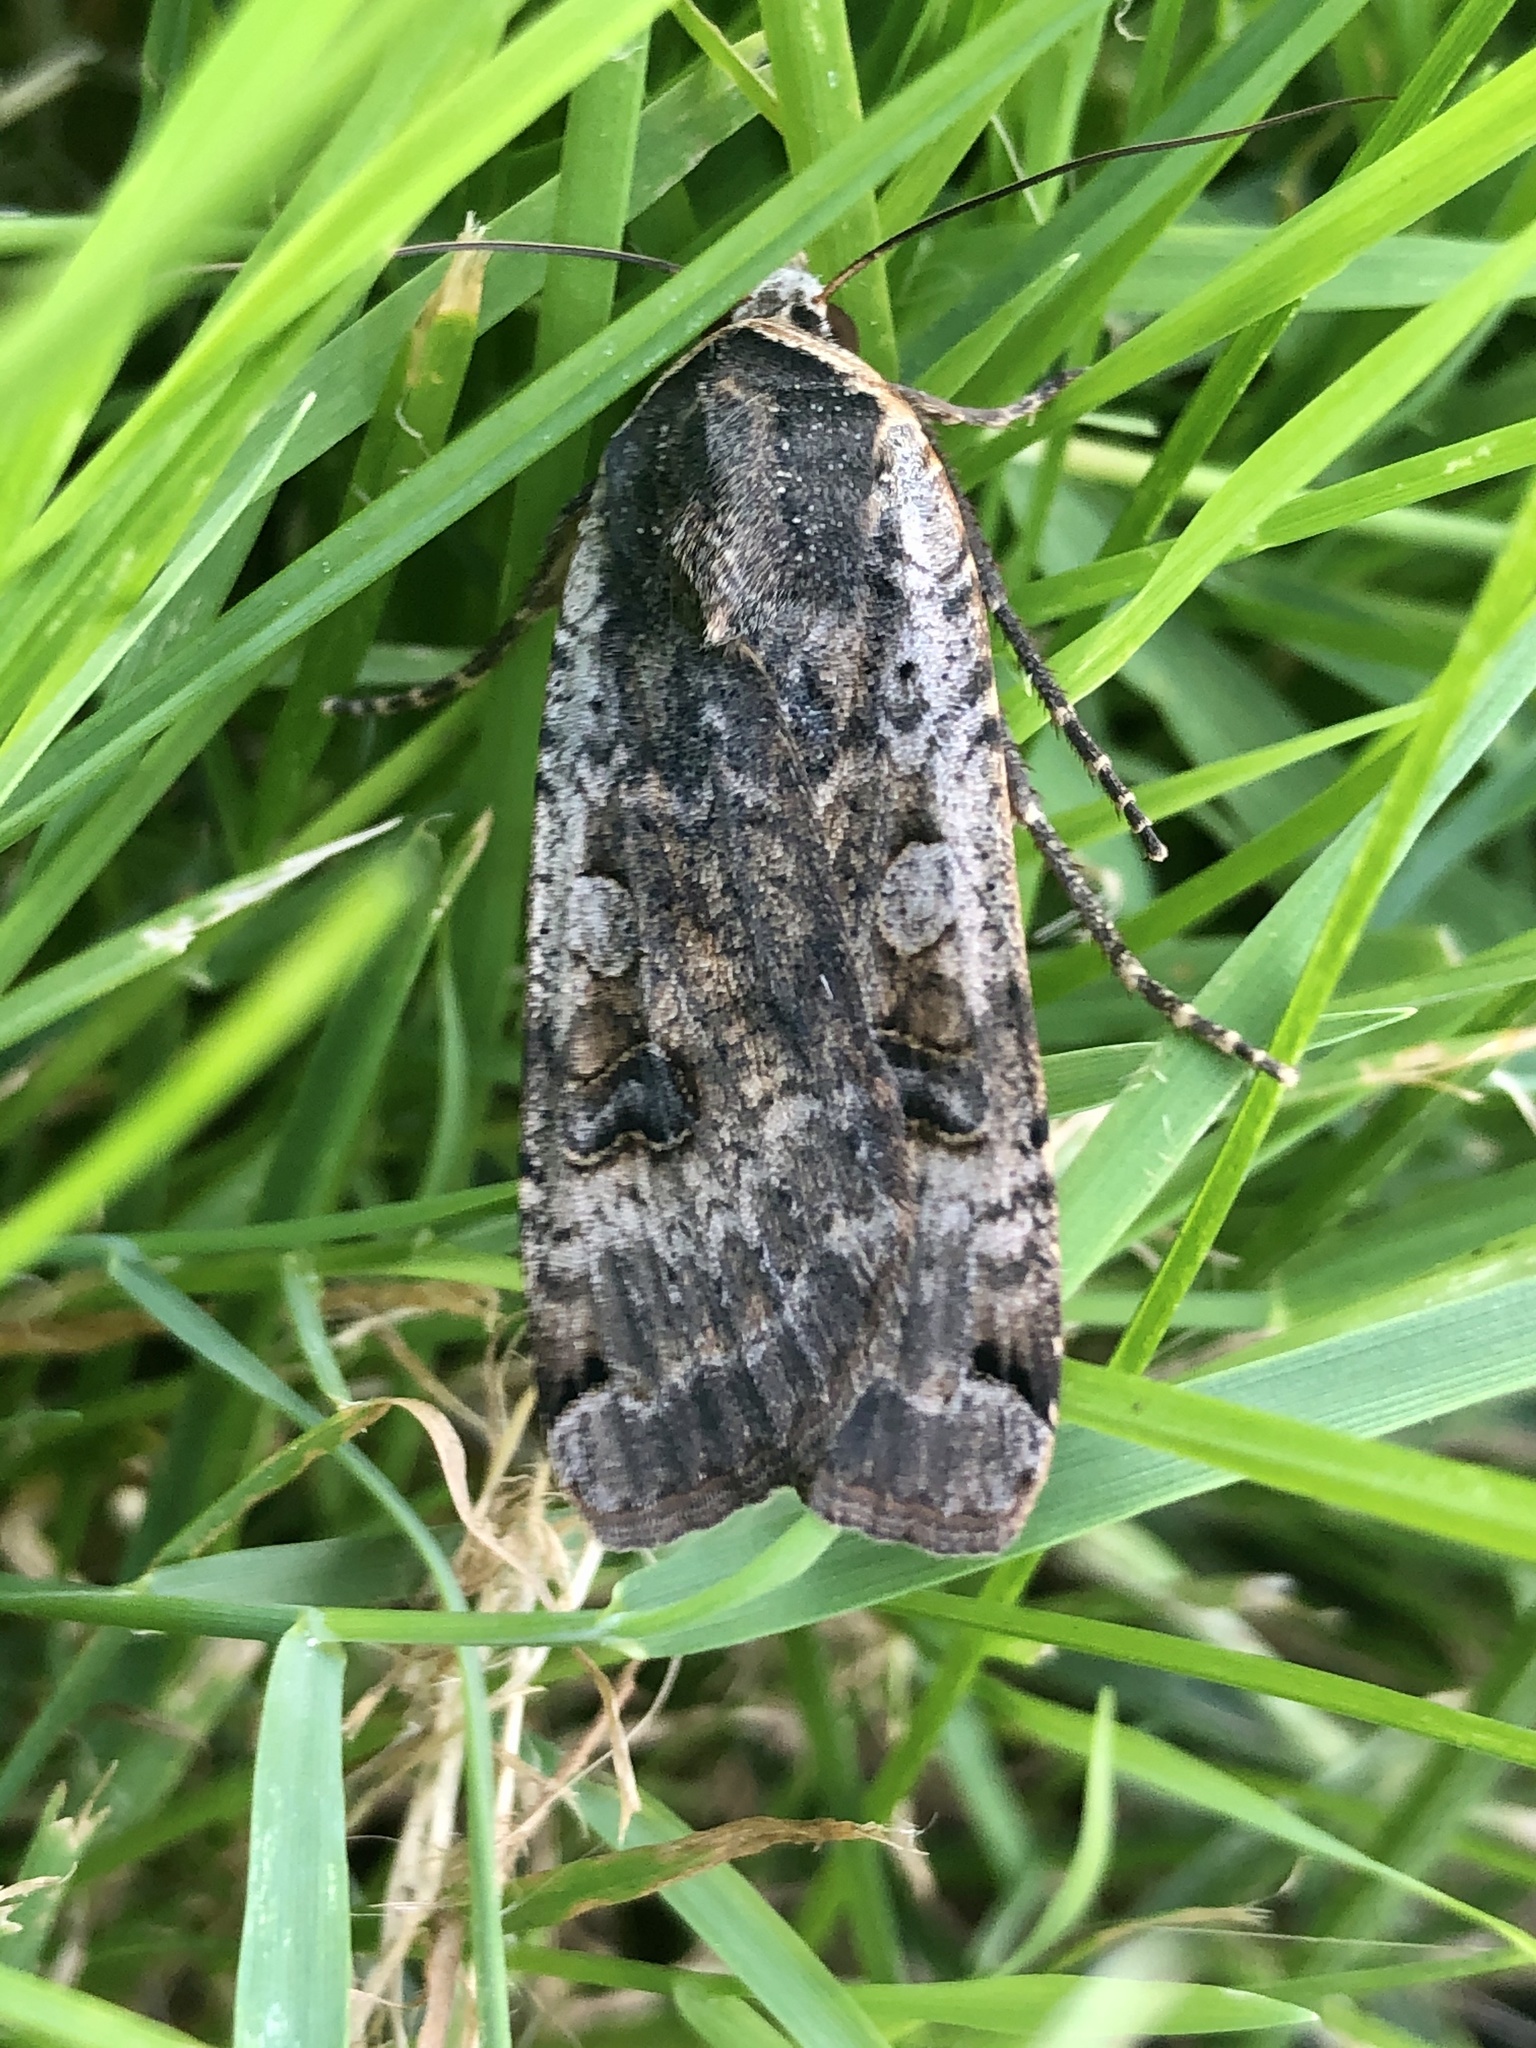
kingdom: Animalia
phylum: Arthropoda
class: Insecta
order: Lepidoptera
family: Noctuidae
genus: Noctua
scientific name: Noctua pronuba
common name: Large yellow underwing
